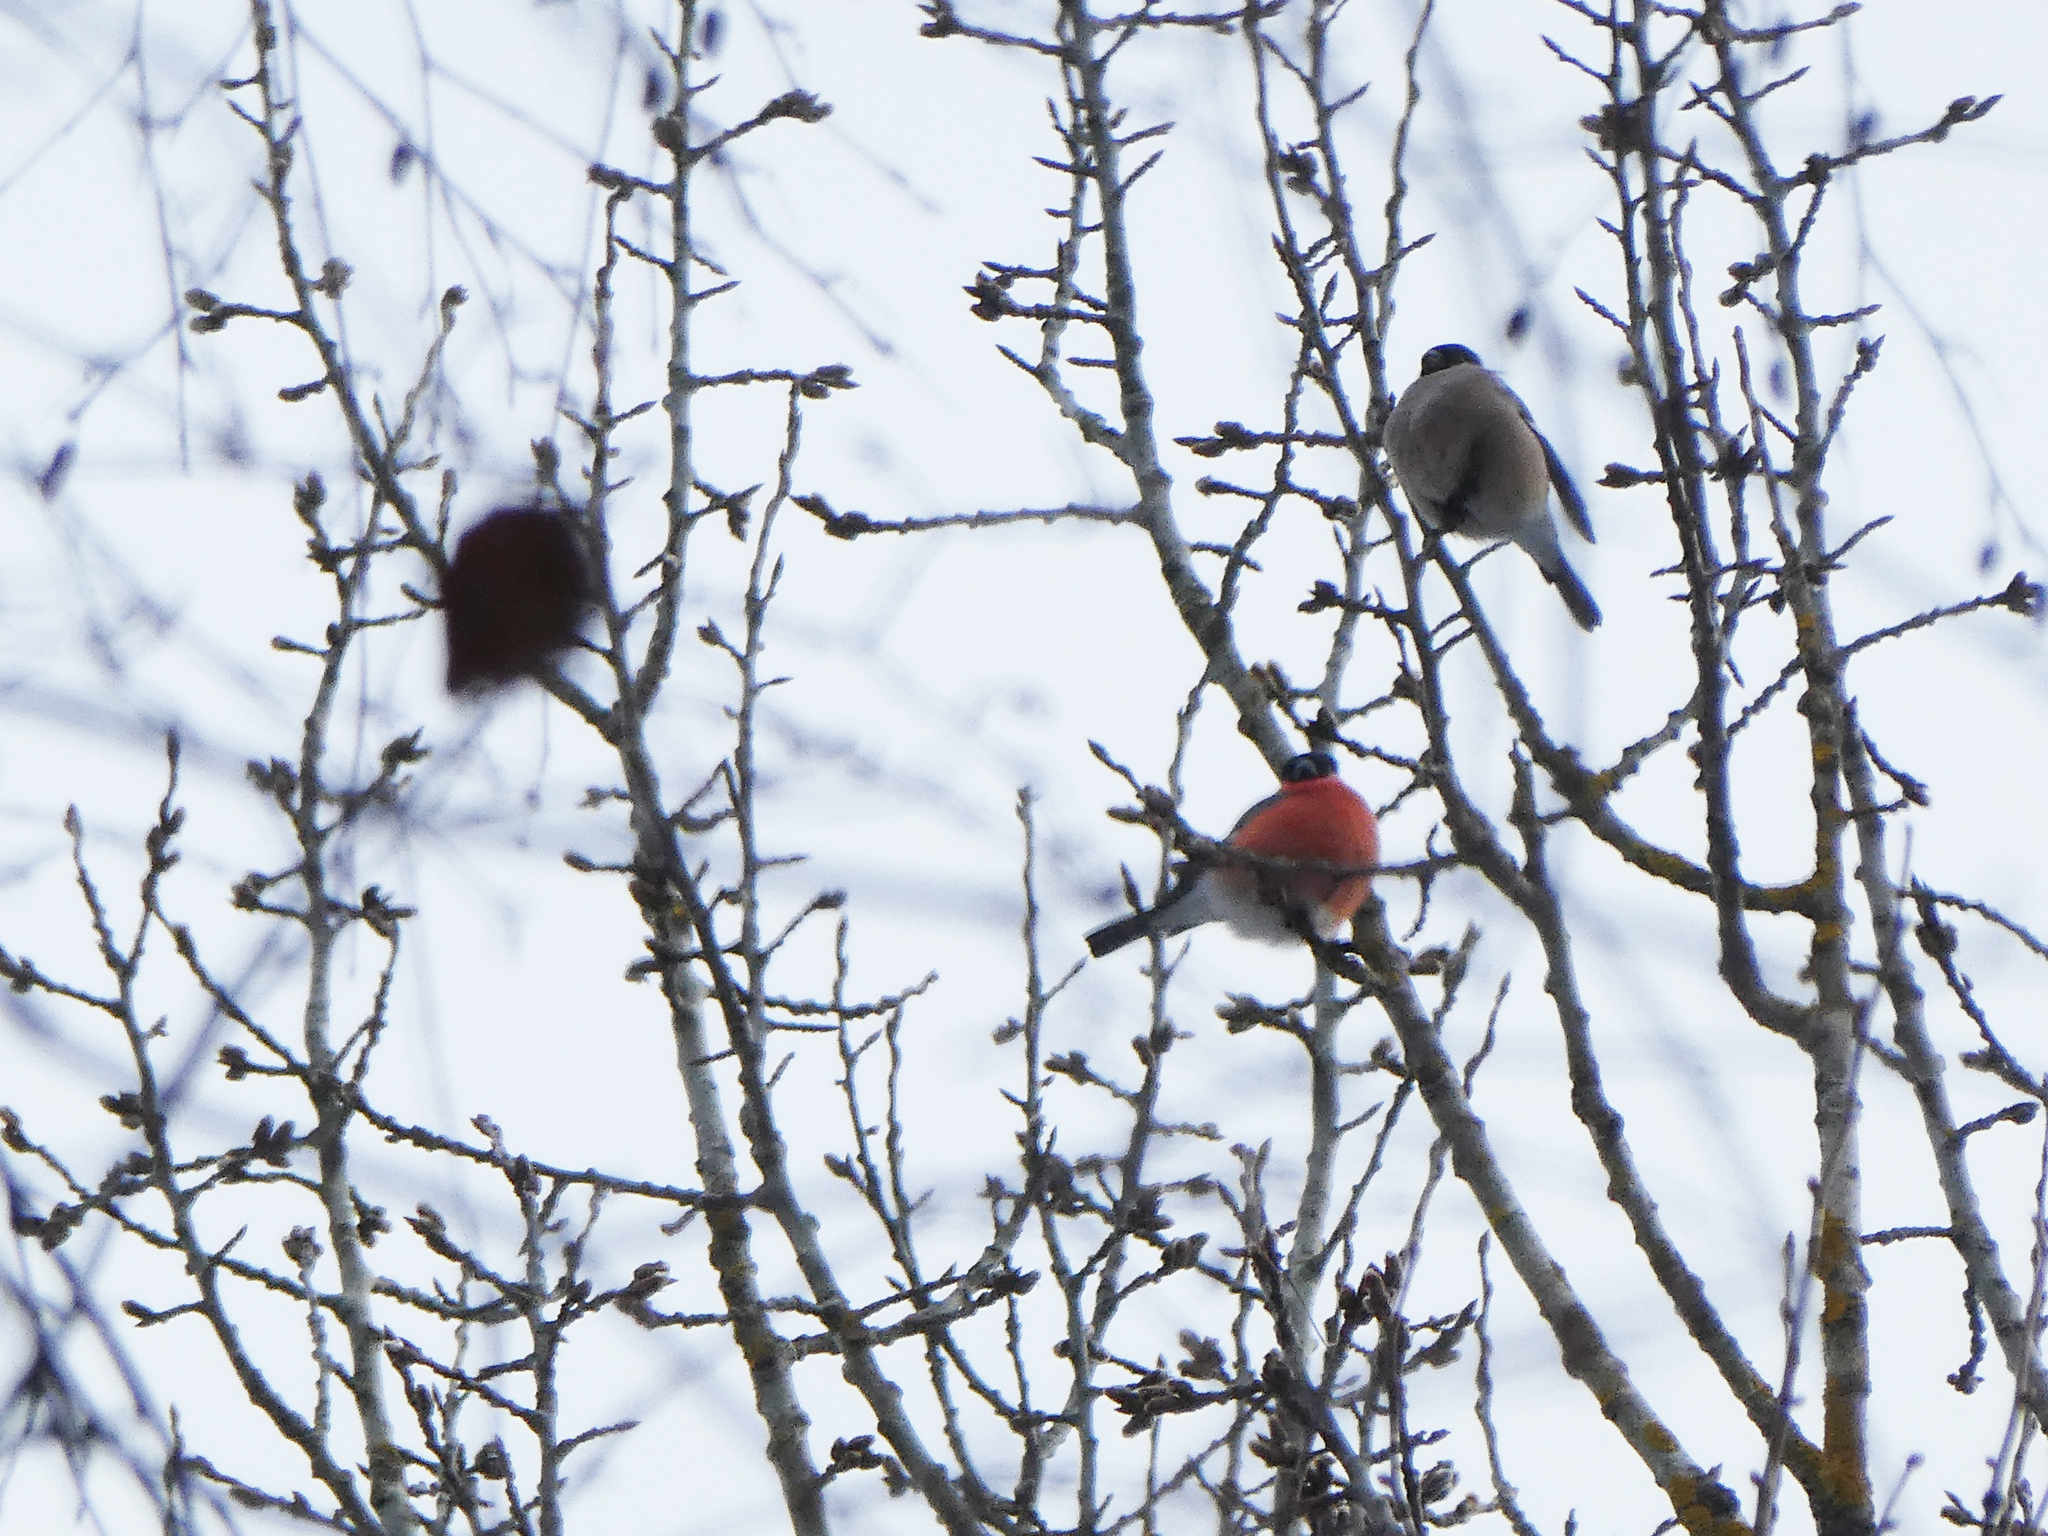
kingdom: Animalia
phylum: Chordata
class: Aves
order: Passeriformes
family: Fringillidae
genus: Pyrrhula
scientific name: Pyrrhula pyrrhula
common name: Eurasian bullfinch
